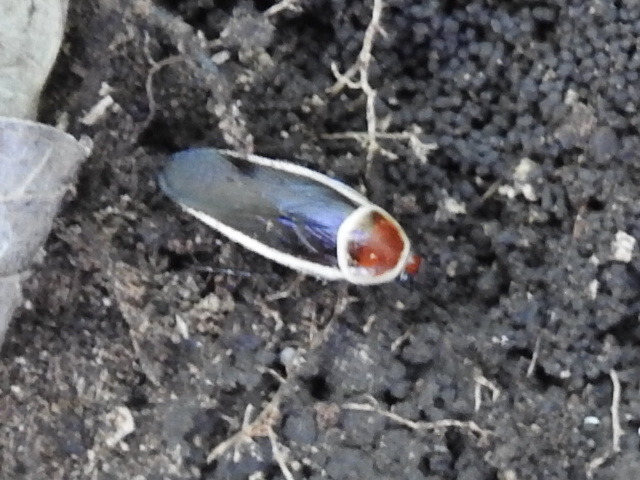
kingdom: Animalia
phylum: Arthropoda
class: Insecta
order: Blattodea
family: Ectobiidae
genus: Pseudomops
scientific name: Pseudomops septentrionalis
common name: Pale-bordered field cockroach
